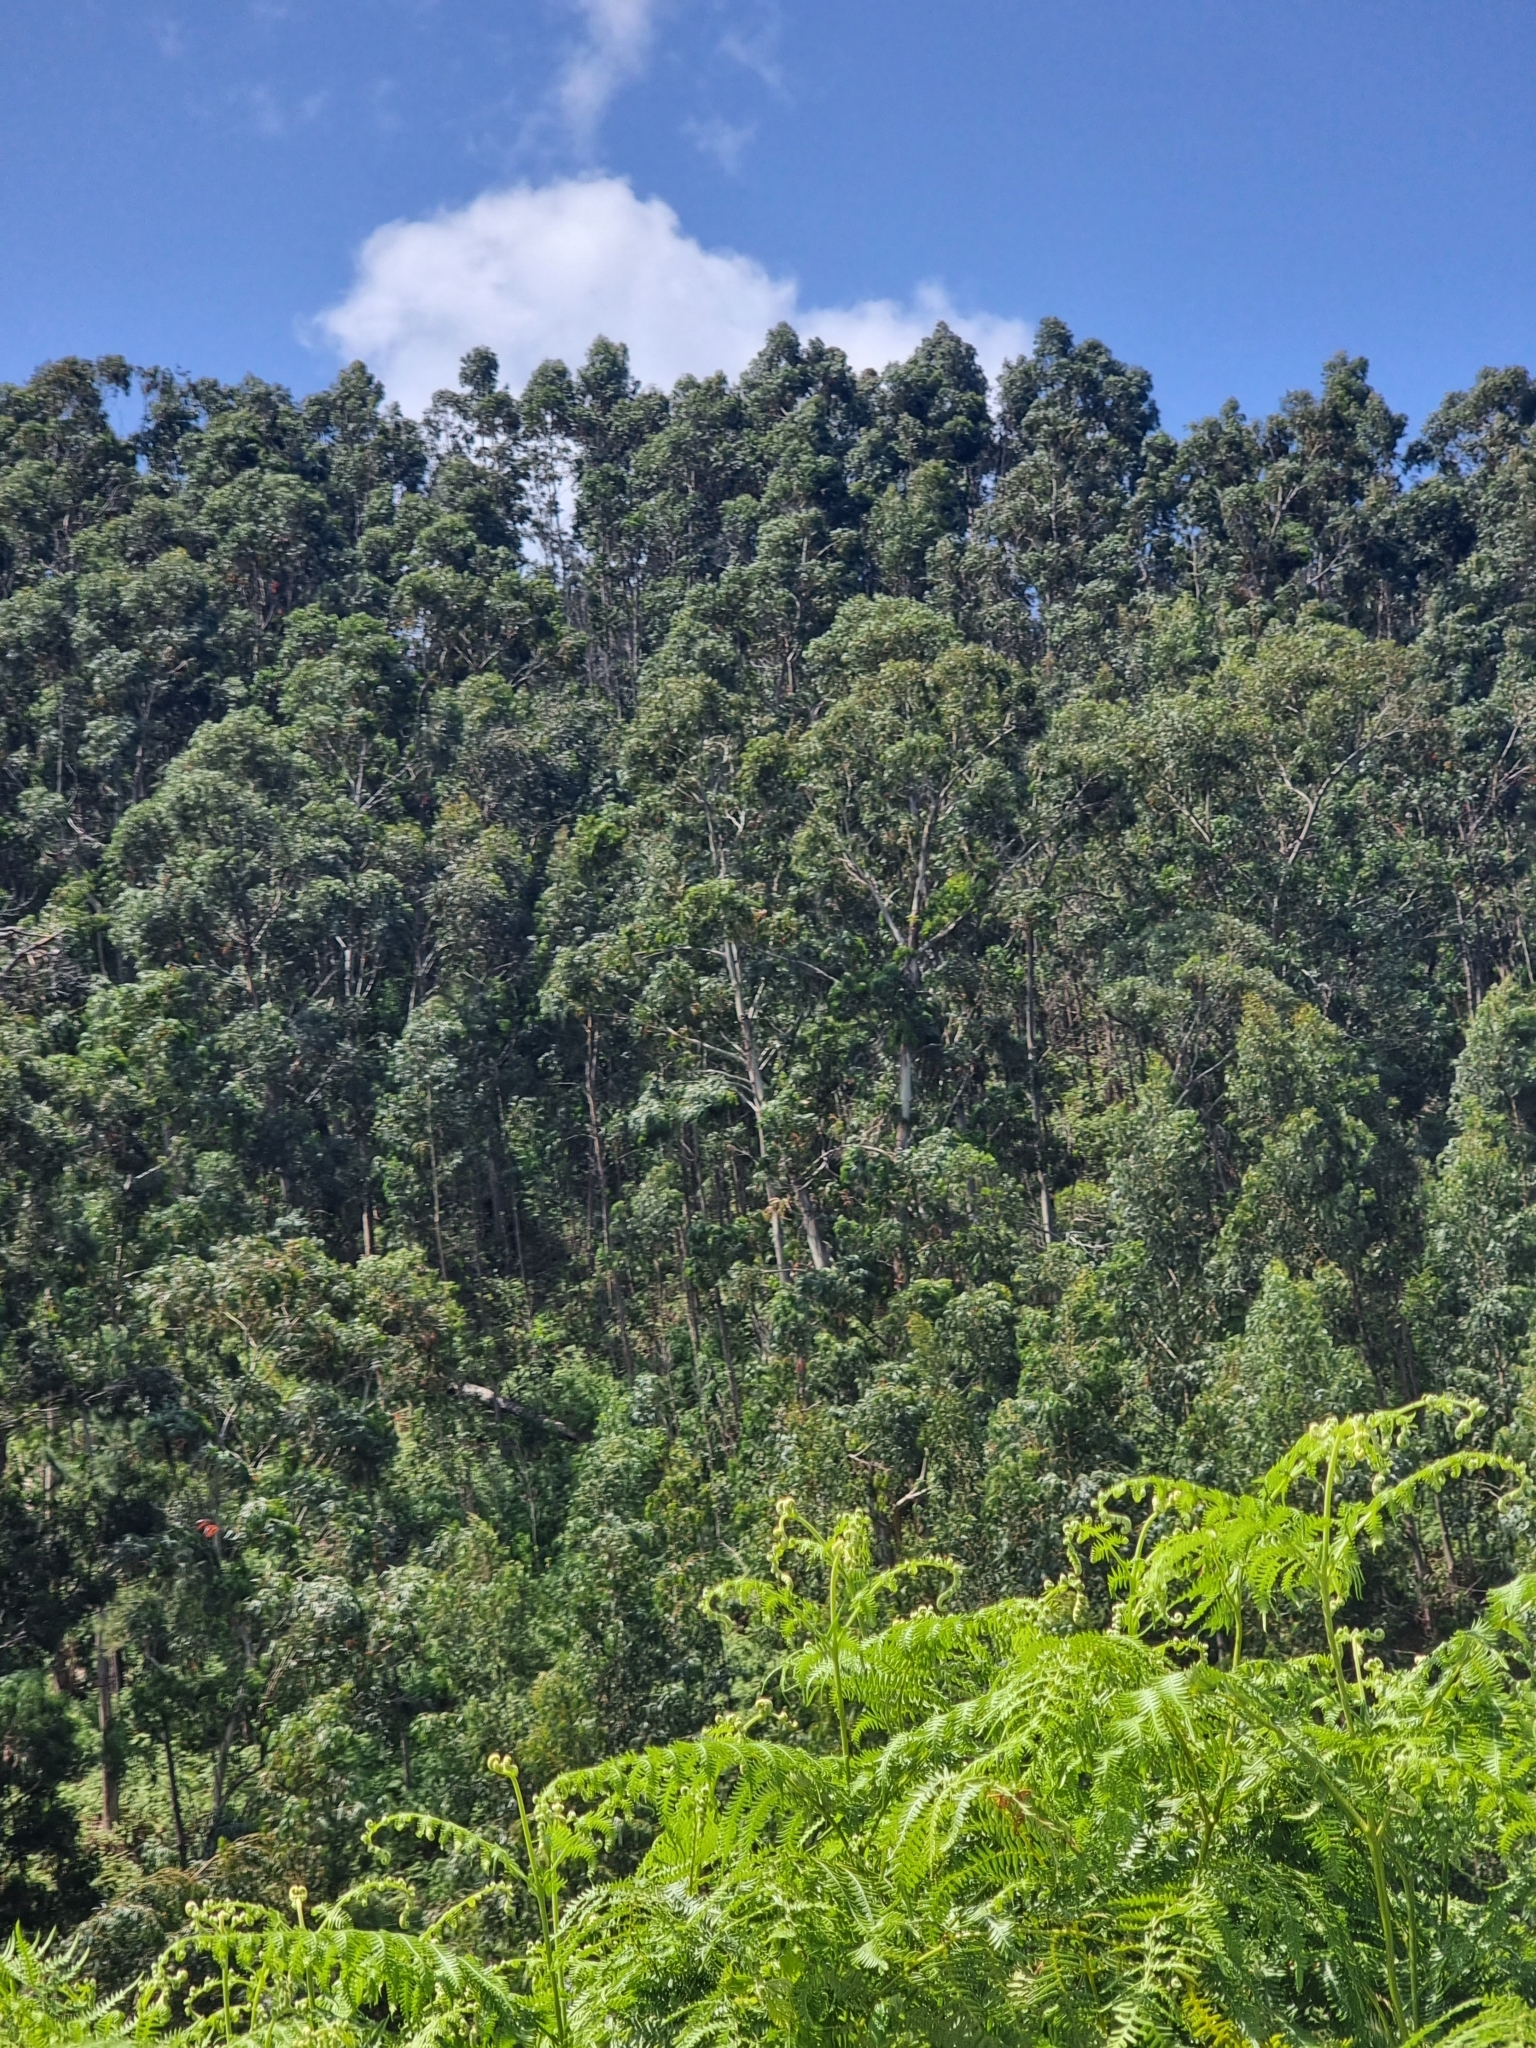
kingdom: Plantae
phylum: Tracheophyta
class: Magnoliopsida
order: Myrtales
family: Myrtaceae
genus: Eucalyptus
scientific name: Eucalyptus globulus
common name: Southern blue-gum
